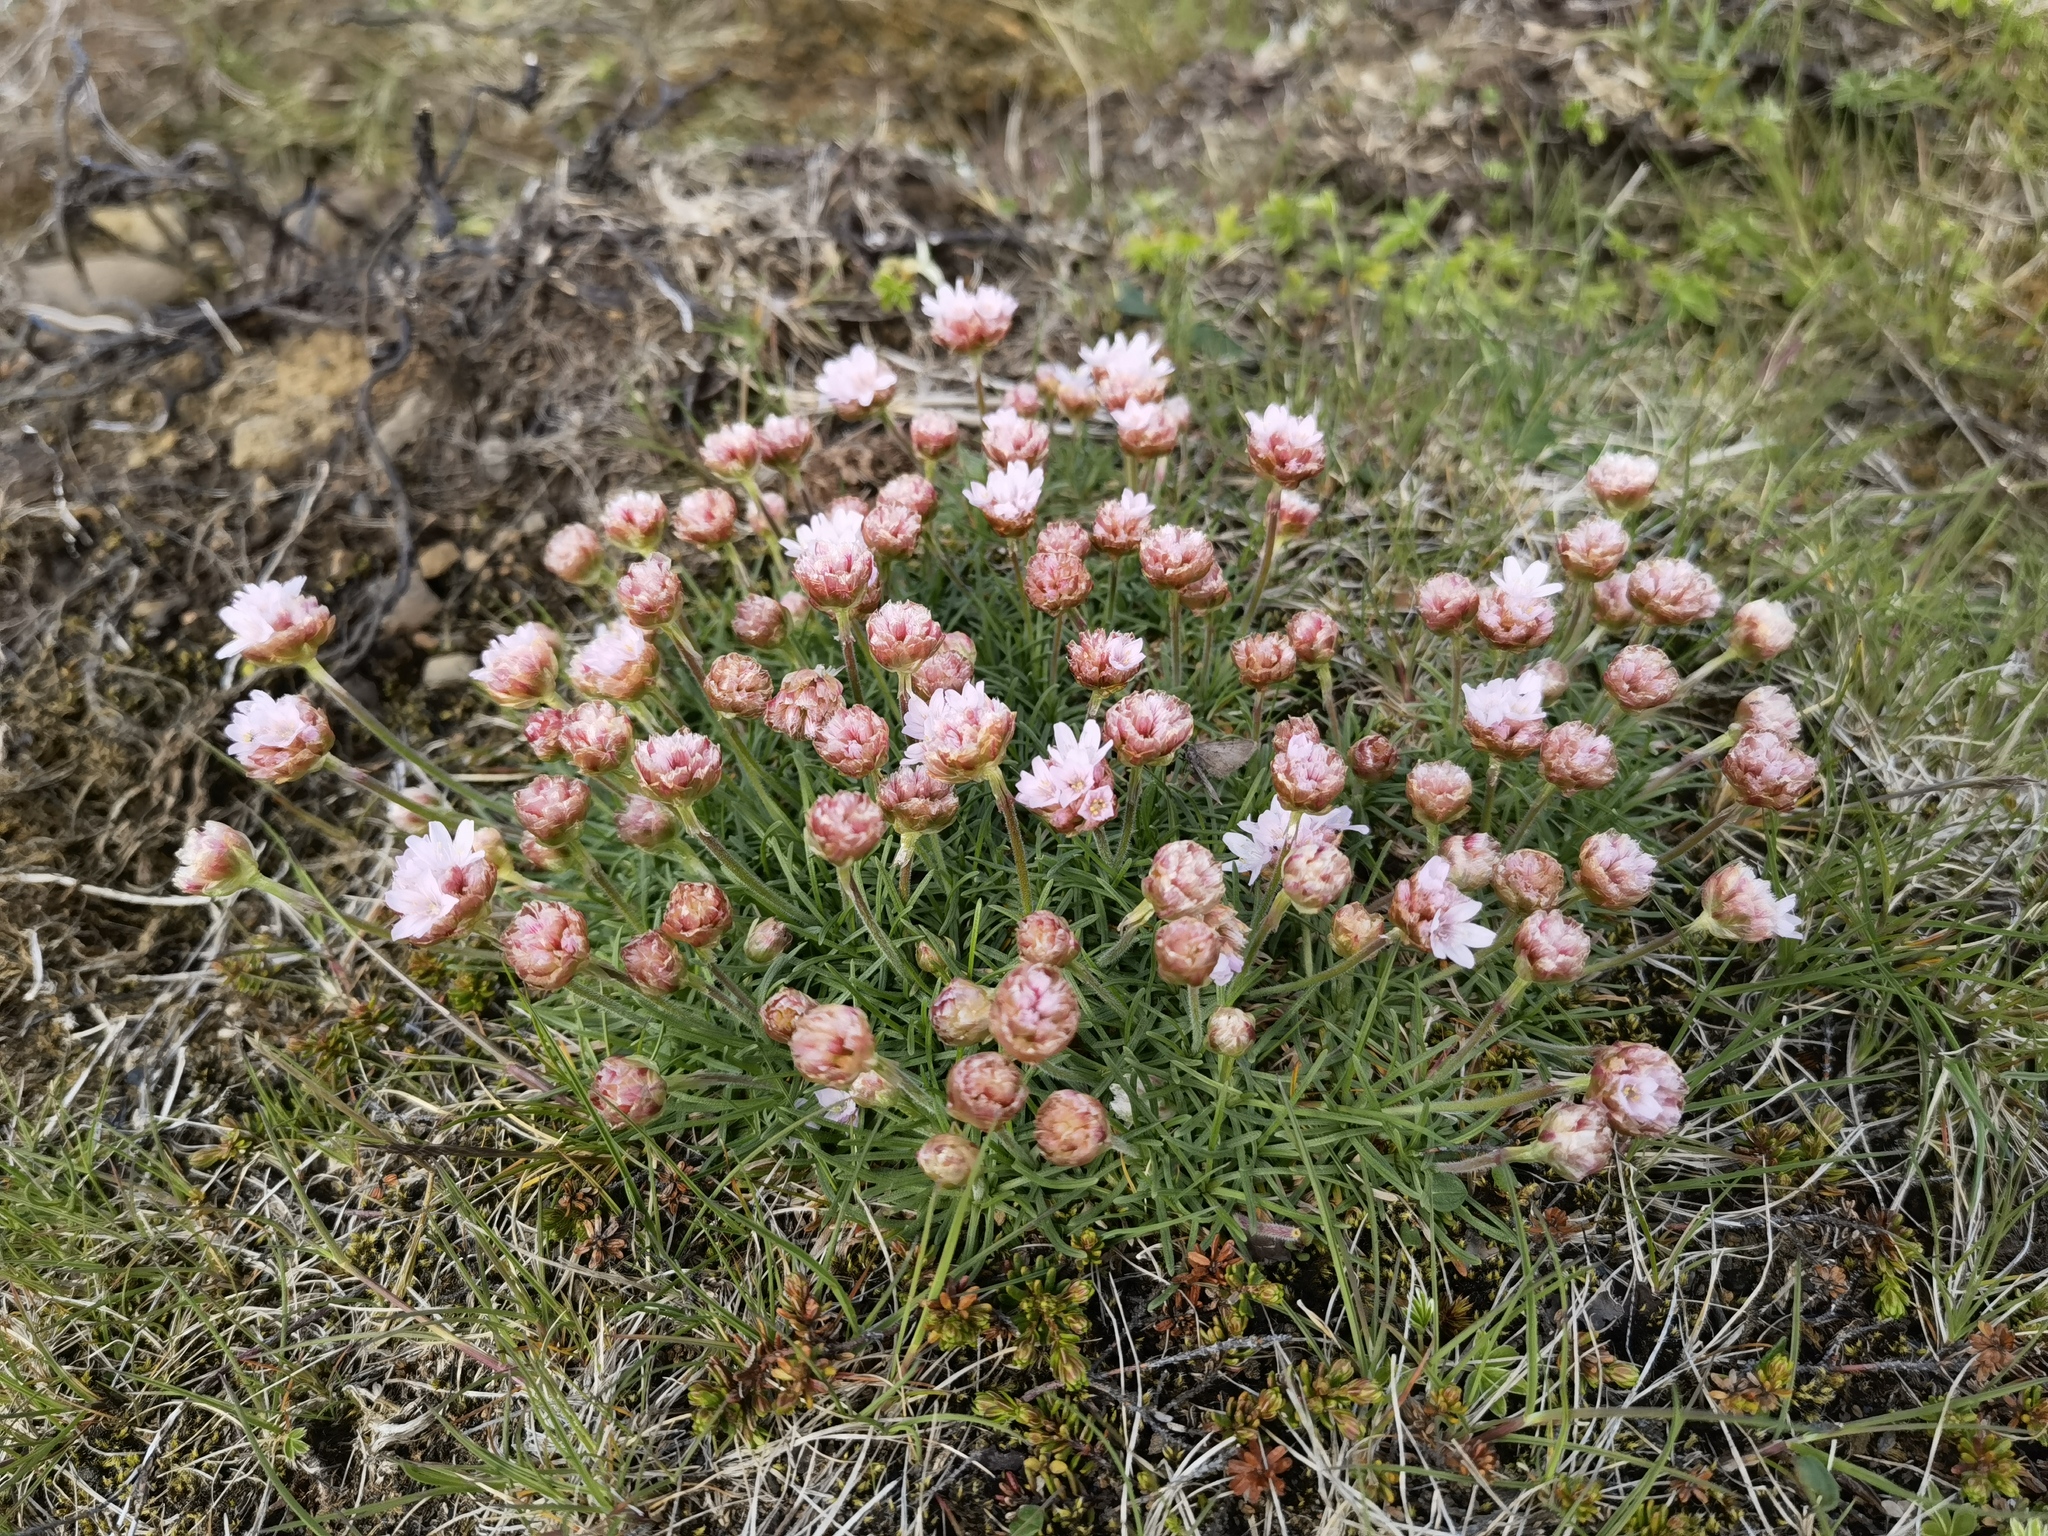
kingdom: Plantae
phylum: Tracheophyta
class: Magnoliopsida
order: Caryophyllales
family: Plumbaginaceae
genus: Armeria
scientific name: Armeria maritima
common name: Thrift
